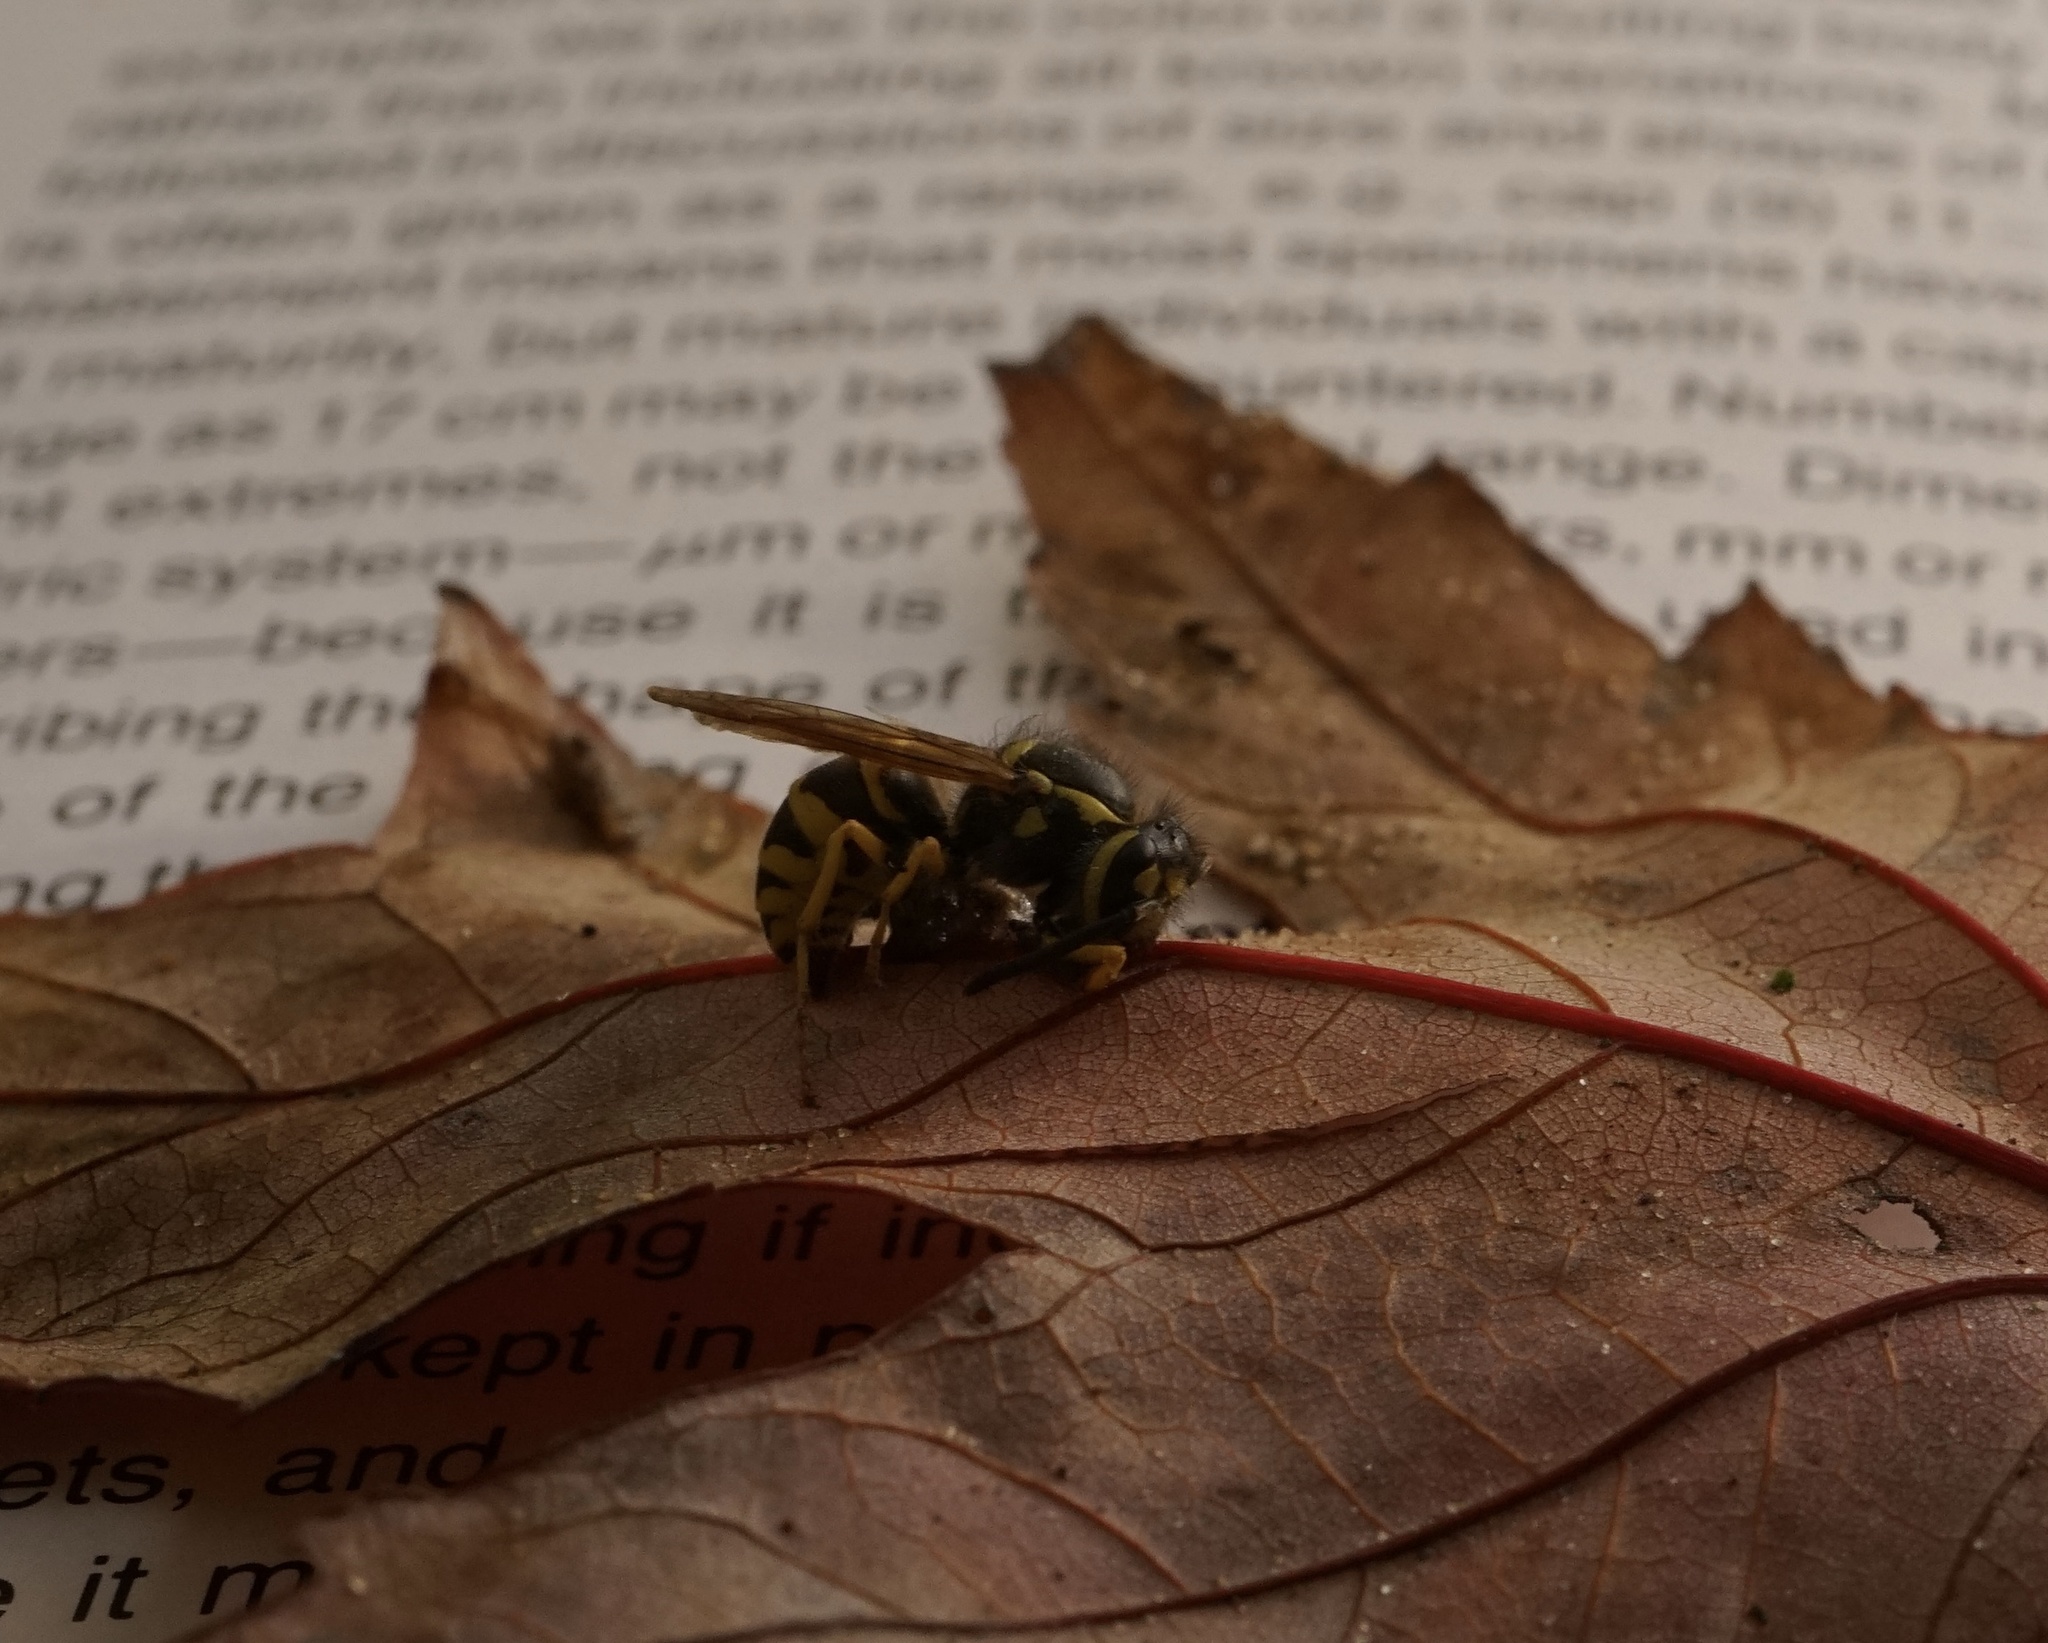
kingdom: Animalia
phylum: Arthropoda
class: Insecta
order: Hymenoptera
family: Vespidae
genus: Vespula
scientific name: Vespula
